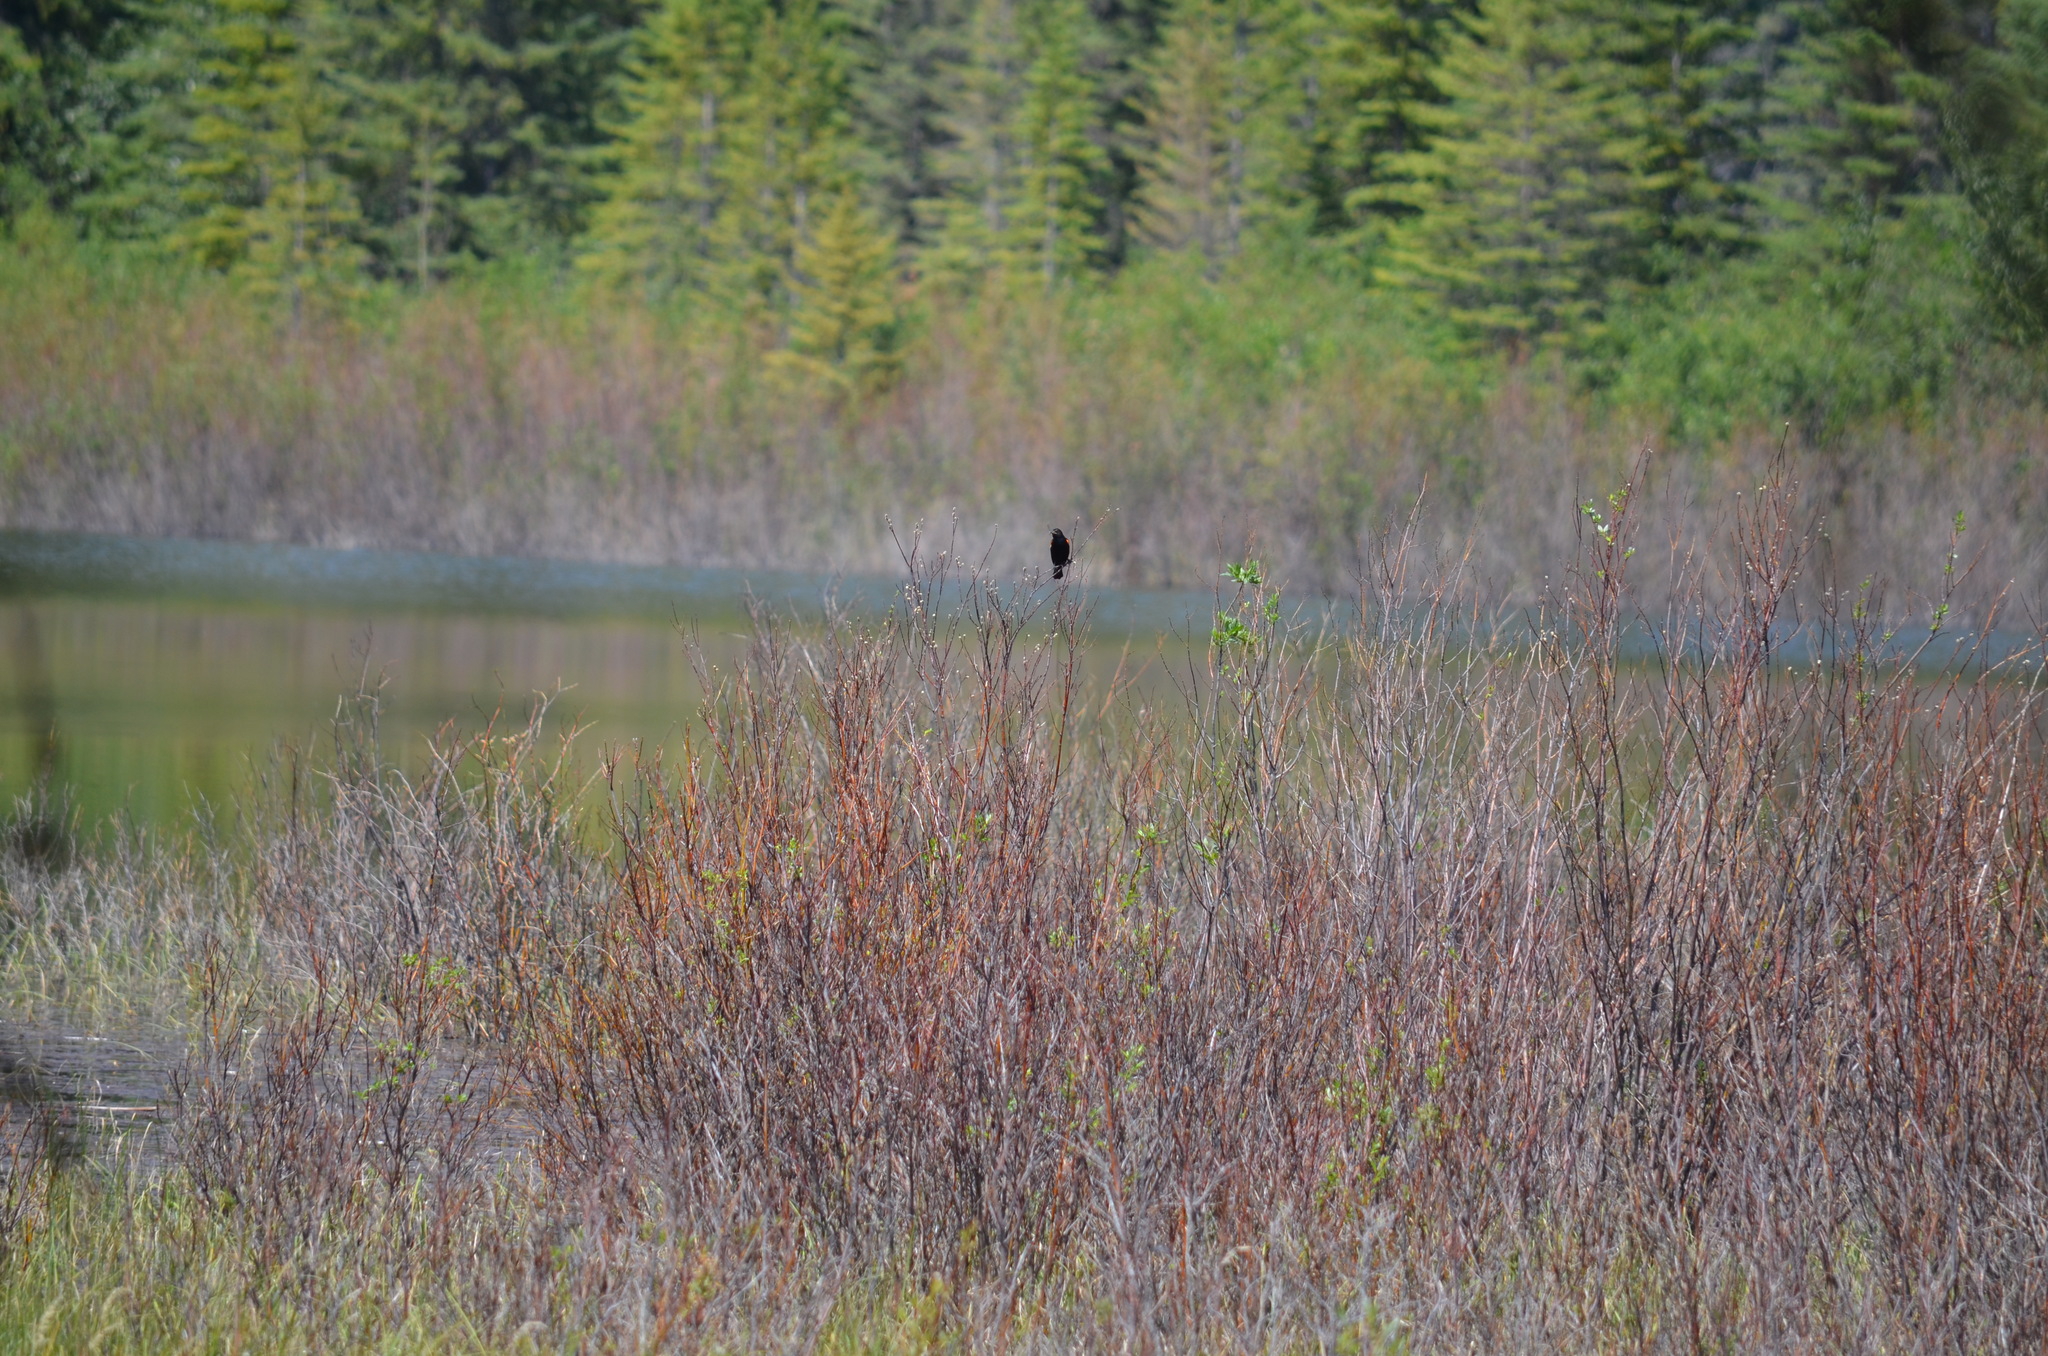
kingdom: Animalia
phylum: Chordata
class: Aves
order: Passeriformes
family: Icteridae
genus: Agelaius
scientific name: Agelaius phoeniceus
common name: Red-winged blackbird
